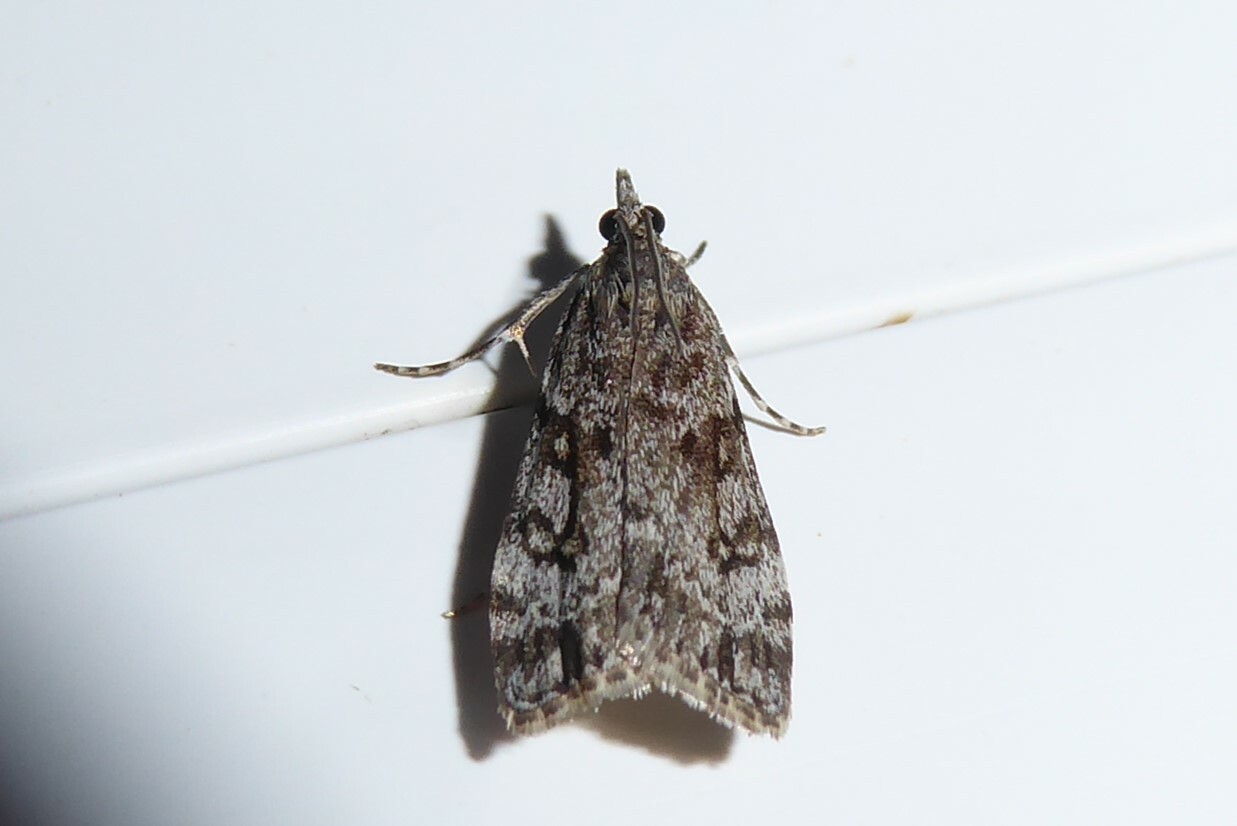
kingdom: Animalia
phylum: Arthropoda
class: Insecta
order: Lepidoptera
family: Crambidae
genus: Eudonia
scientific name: Eudonia cymatias
